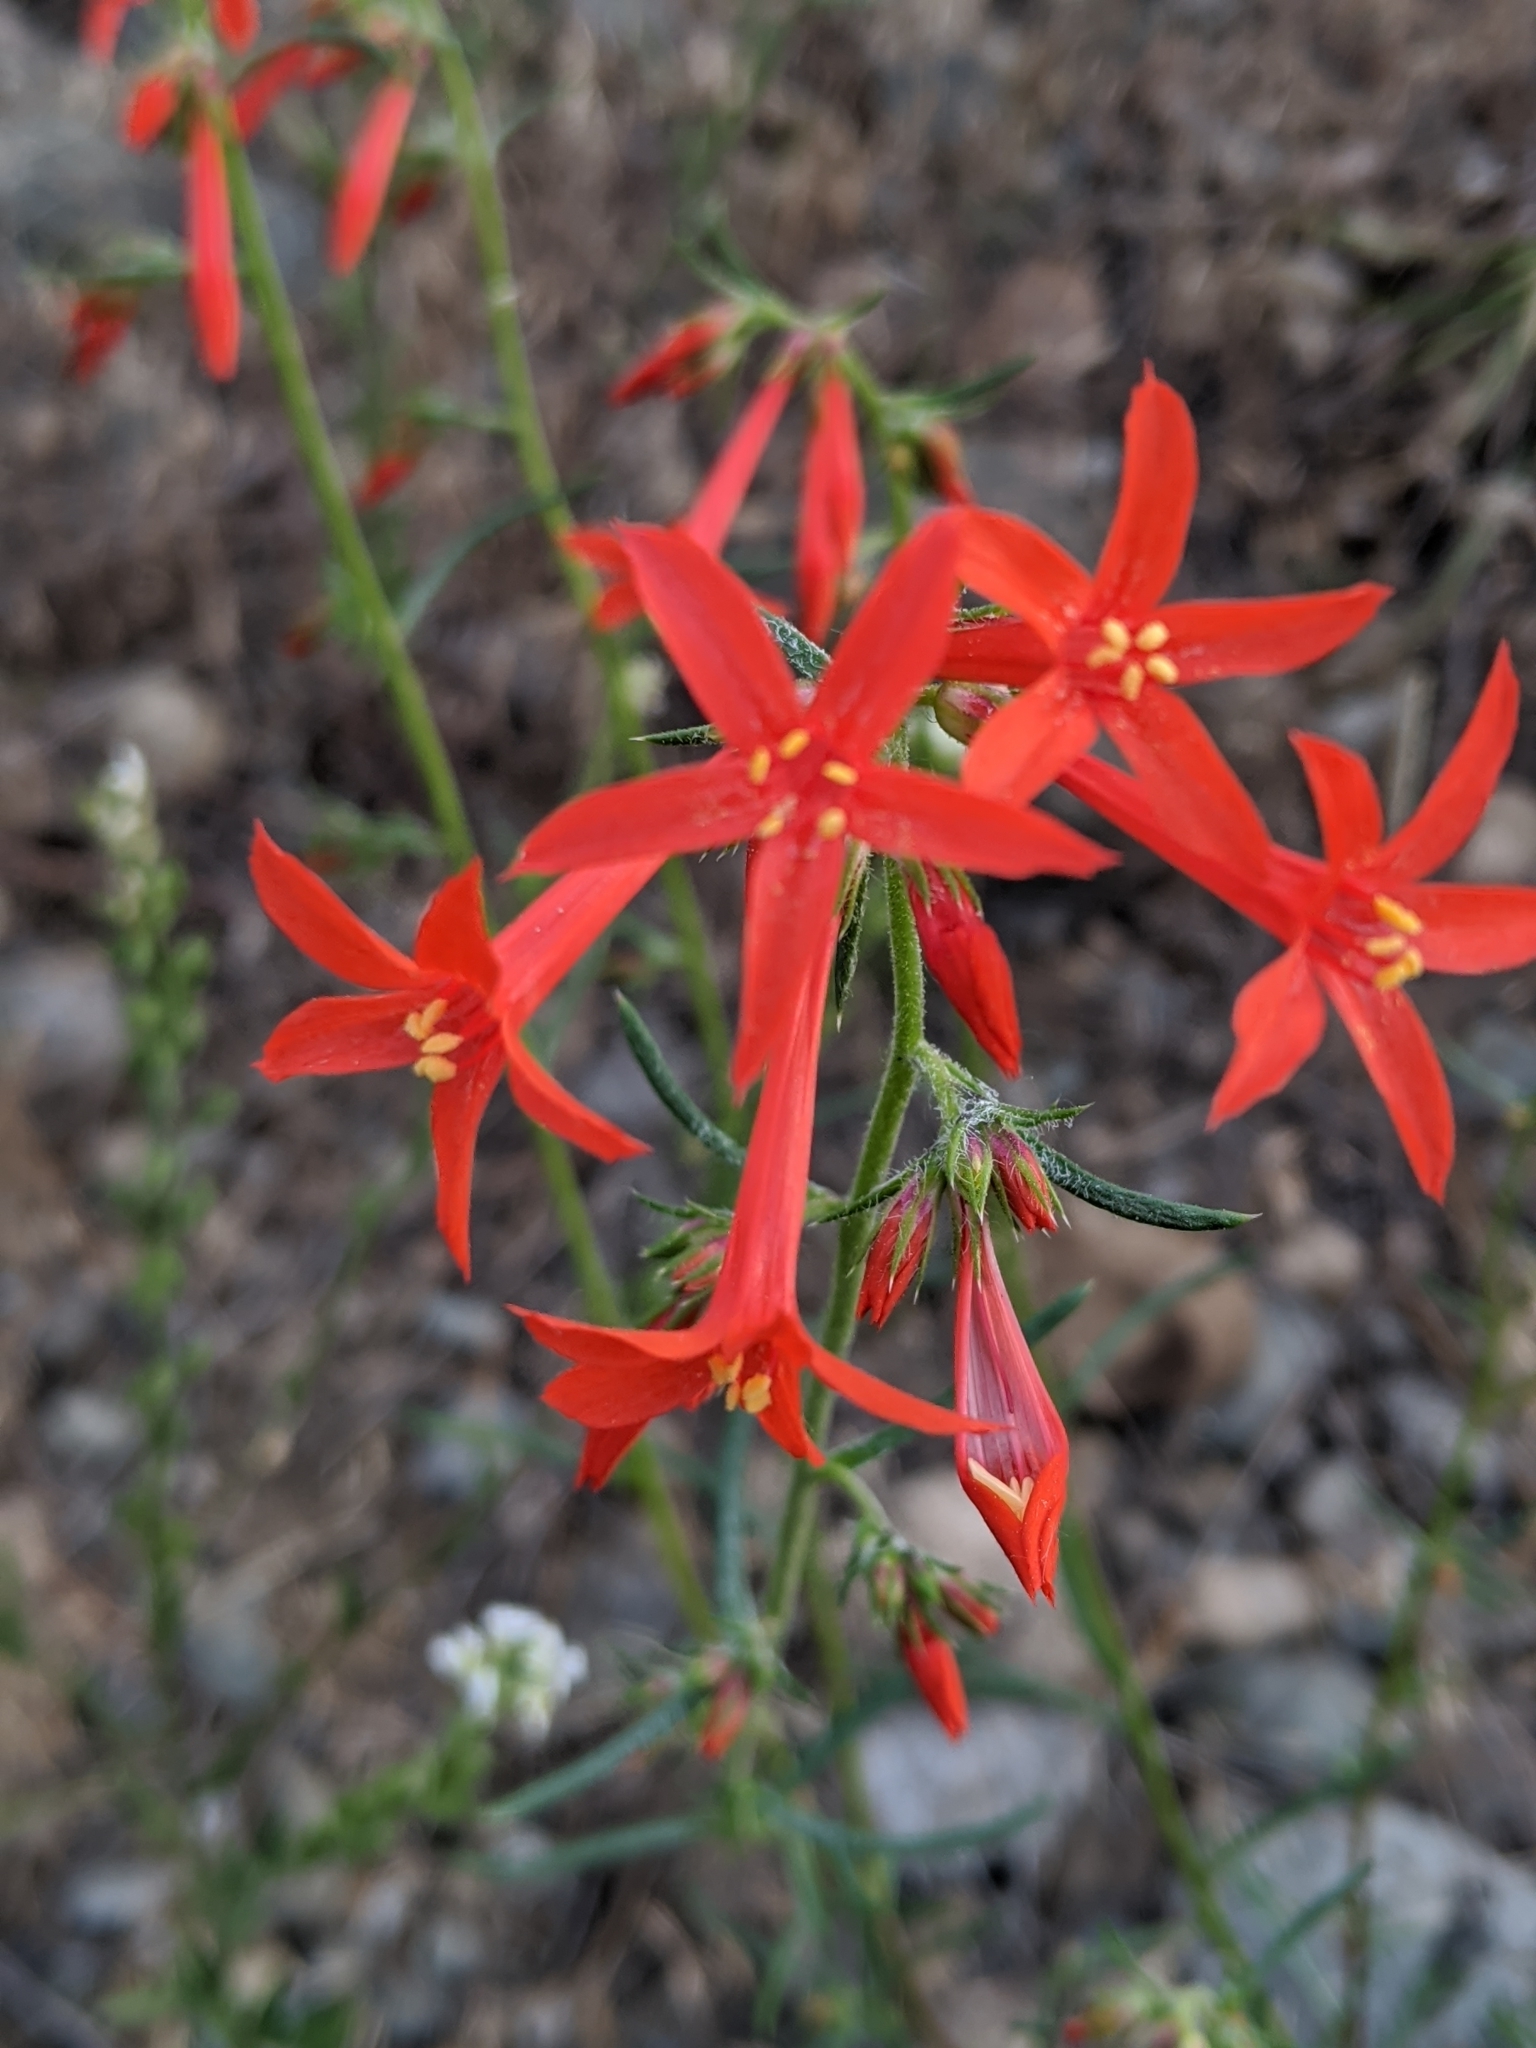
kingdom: Plantae
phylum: Tracheophyta
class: Magnoliopsida
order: Ericales
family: Polemoniaceae
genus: Ipomopsis
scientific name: Ipomopsis aggregata
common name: Scarlet gilia
